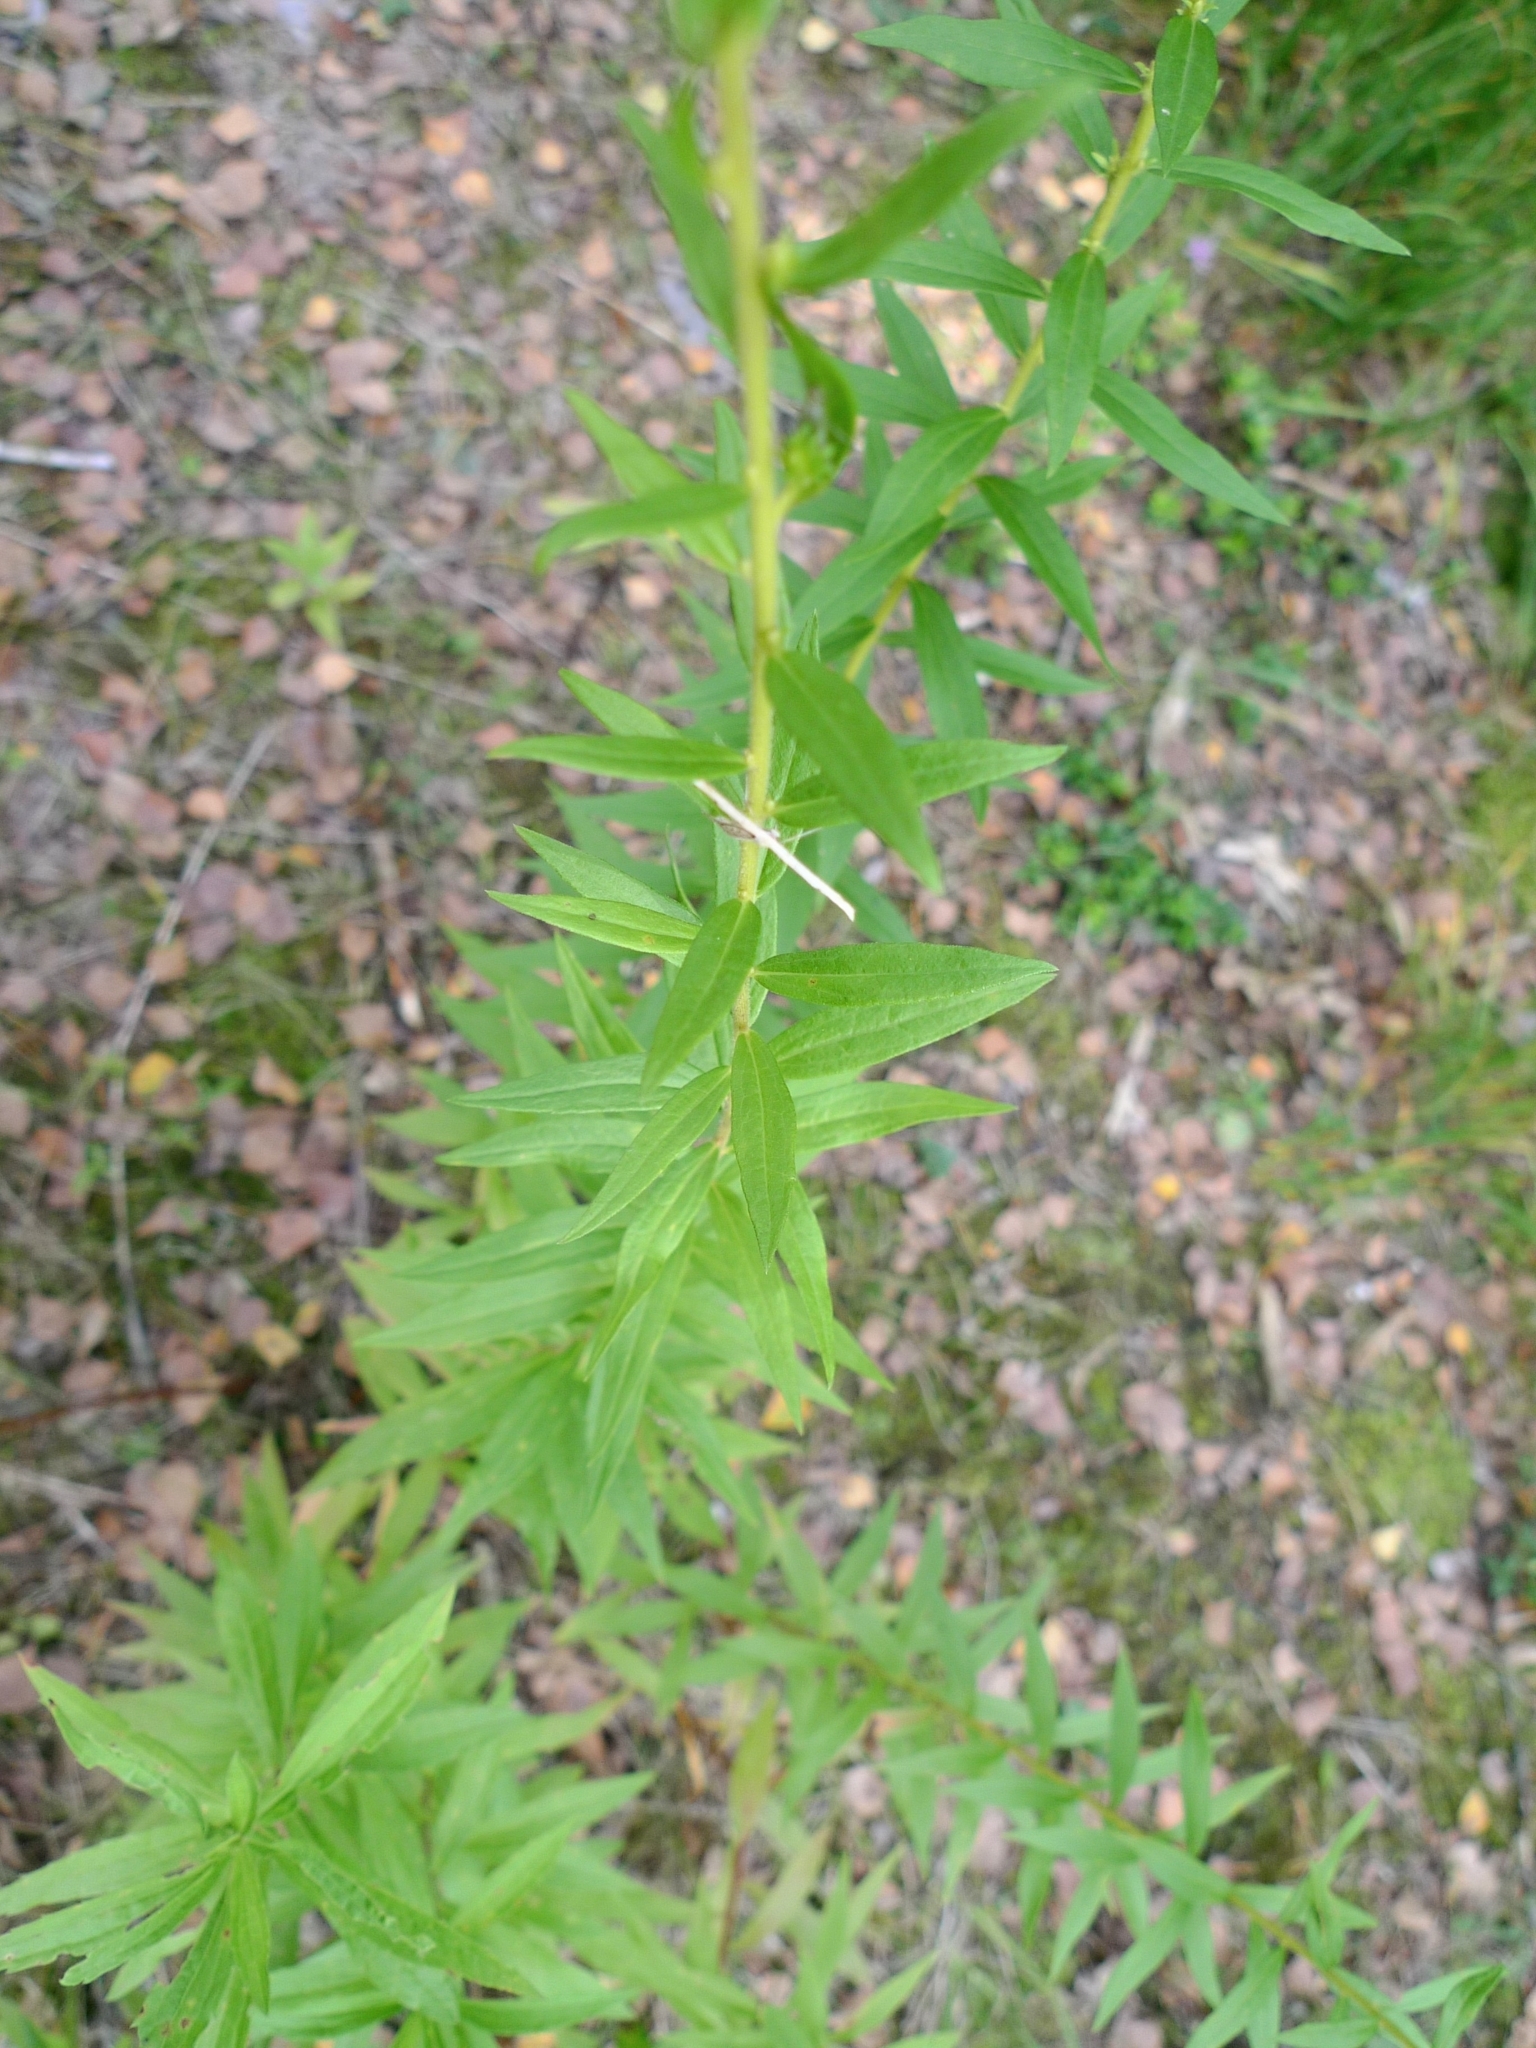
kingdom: Plantae
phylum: Tracheophyta
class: Magnoliopsida
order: Asterales
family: Asteraceae
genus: Solidago
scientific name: Solidago canadensis
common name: Canada goldenrod
